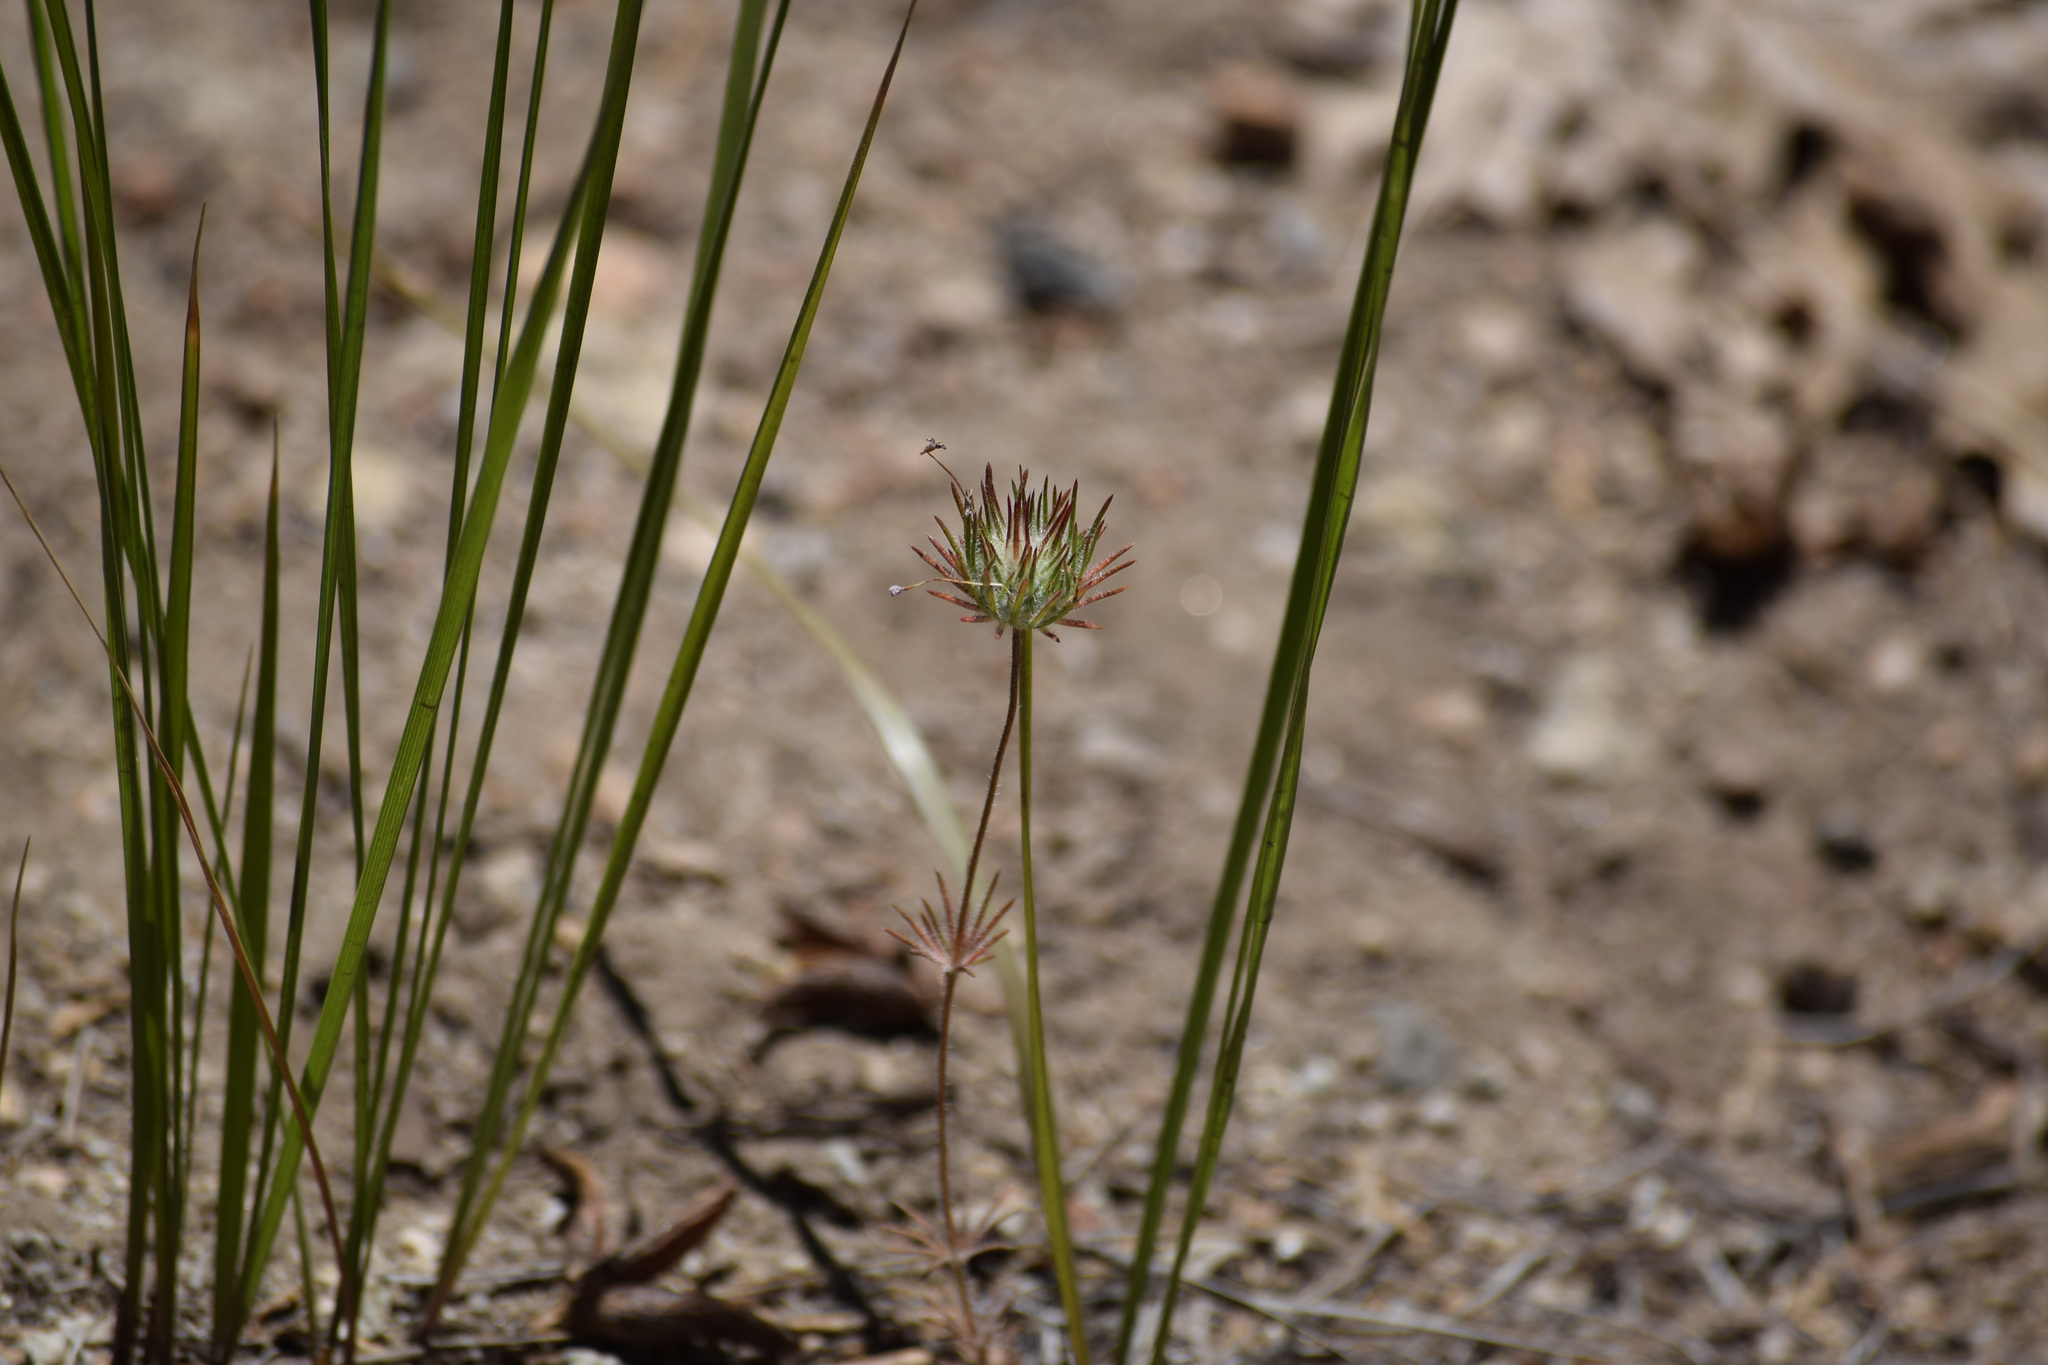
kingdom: Plantae
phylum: Tracheophyta
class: Magnoliopsida
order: Ericales
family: Polemoniaceae
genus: Leptosiphon
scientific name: Leptosiphon ciliatus
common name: Whiskerbrush
